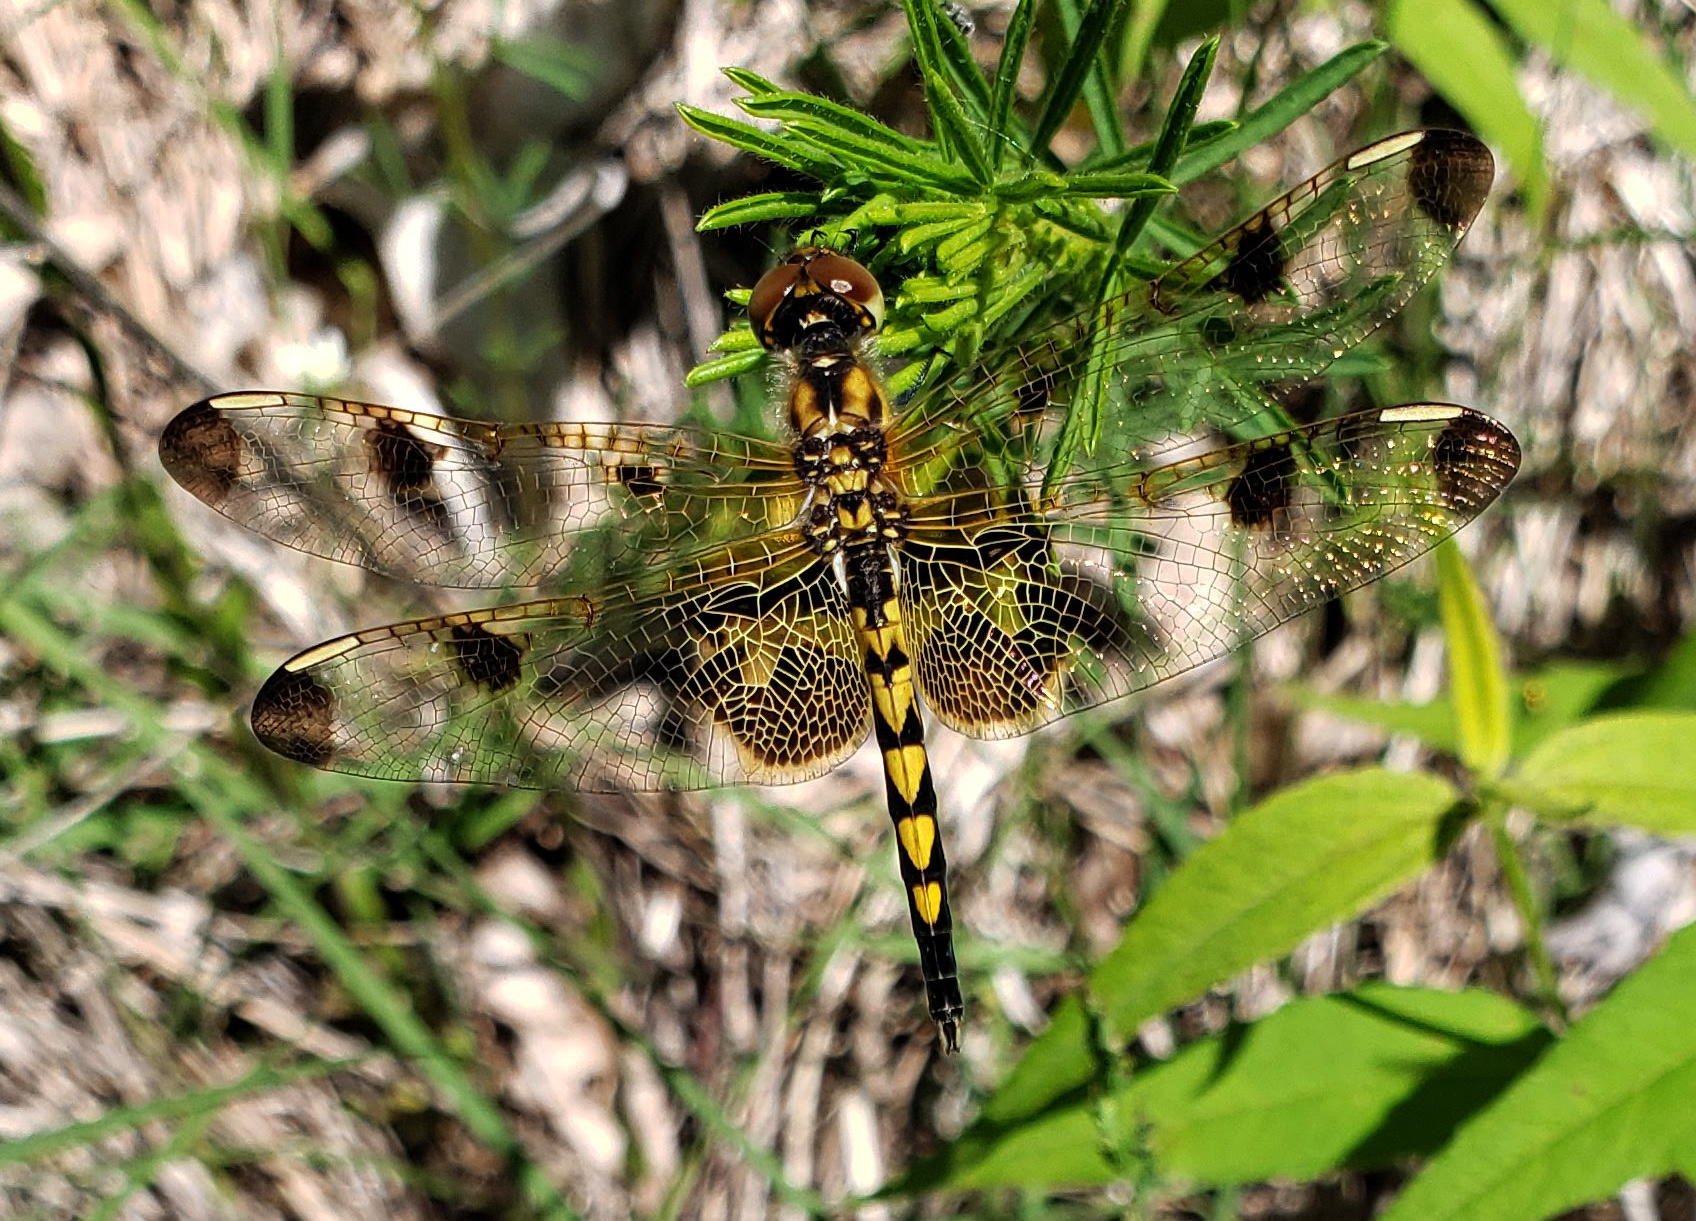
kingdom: Animalia
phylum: Arthropoda
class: Insecta
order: Odonata
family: Libellulidae
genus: Celithemis
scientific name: Celithemis elisa
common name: Calico pennant
